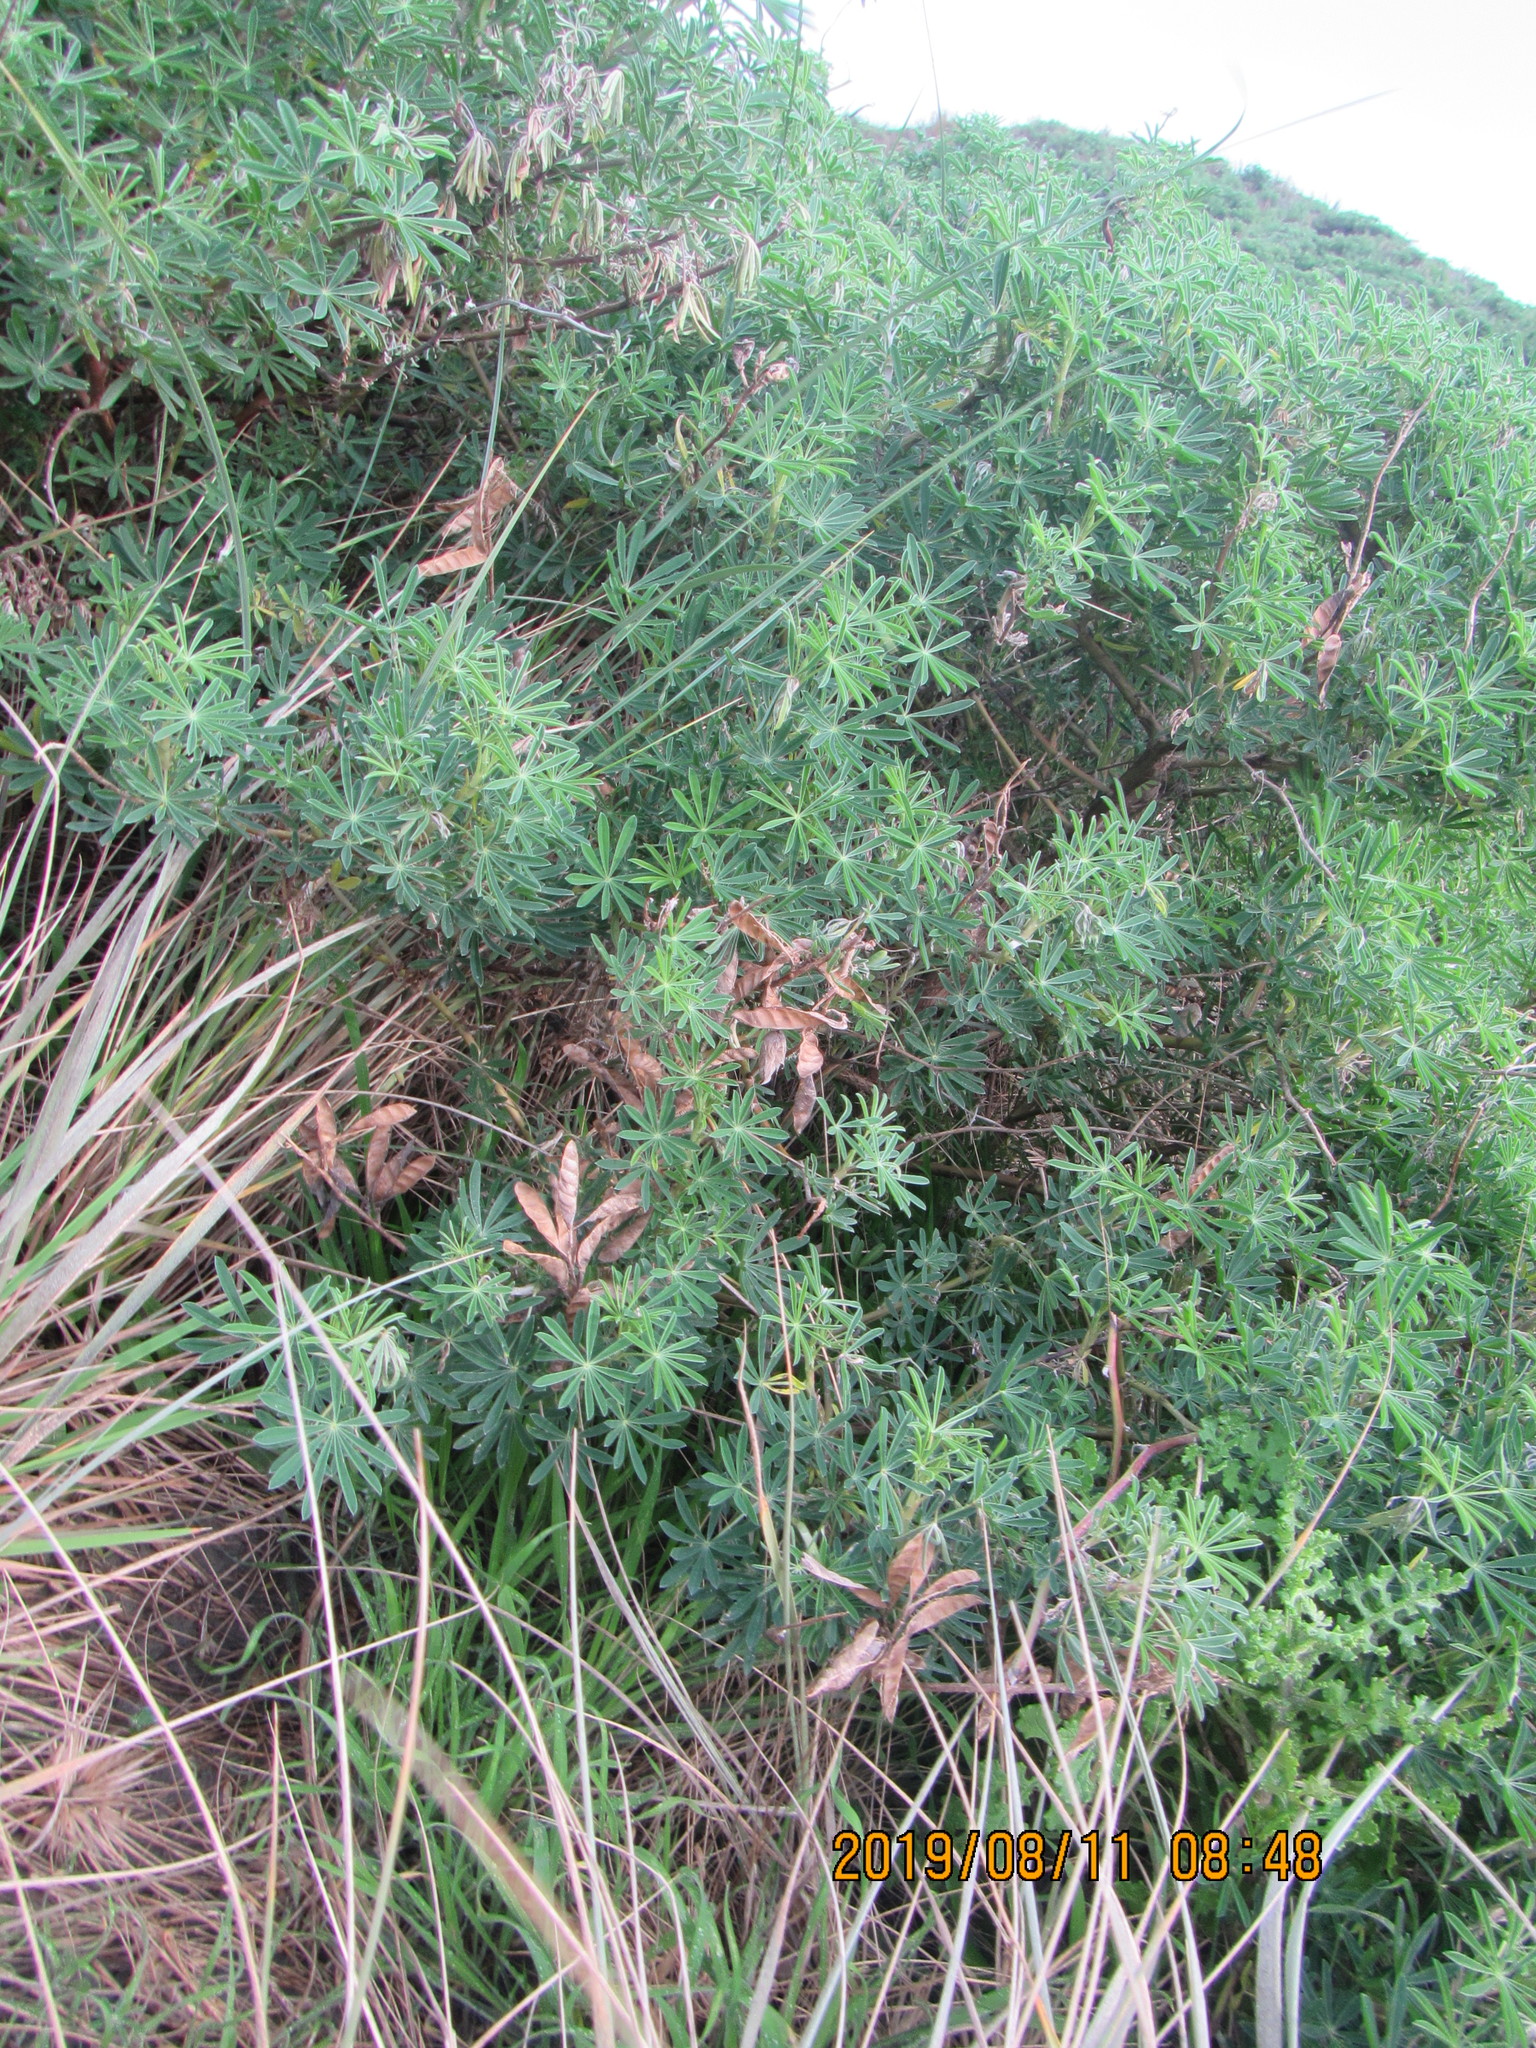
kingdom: Plantae
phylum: Tracheophyta
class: Magnoliopsida
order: Fabales
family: Fabaceae
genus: Lupinus
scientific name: Lupinus arboreus
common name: Yellow bush lupine
